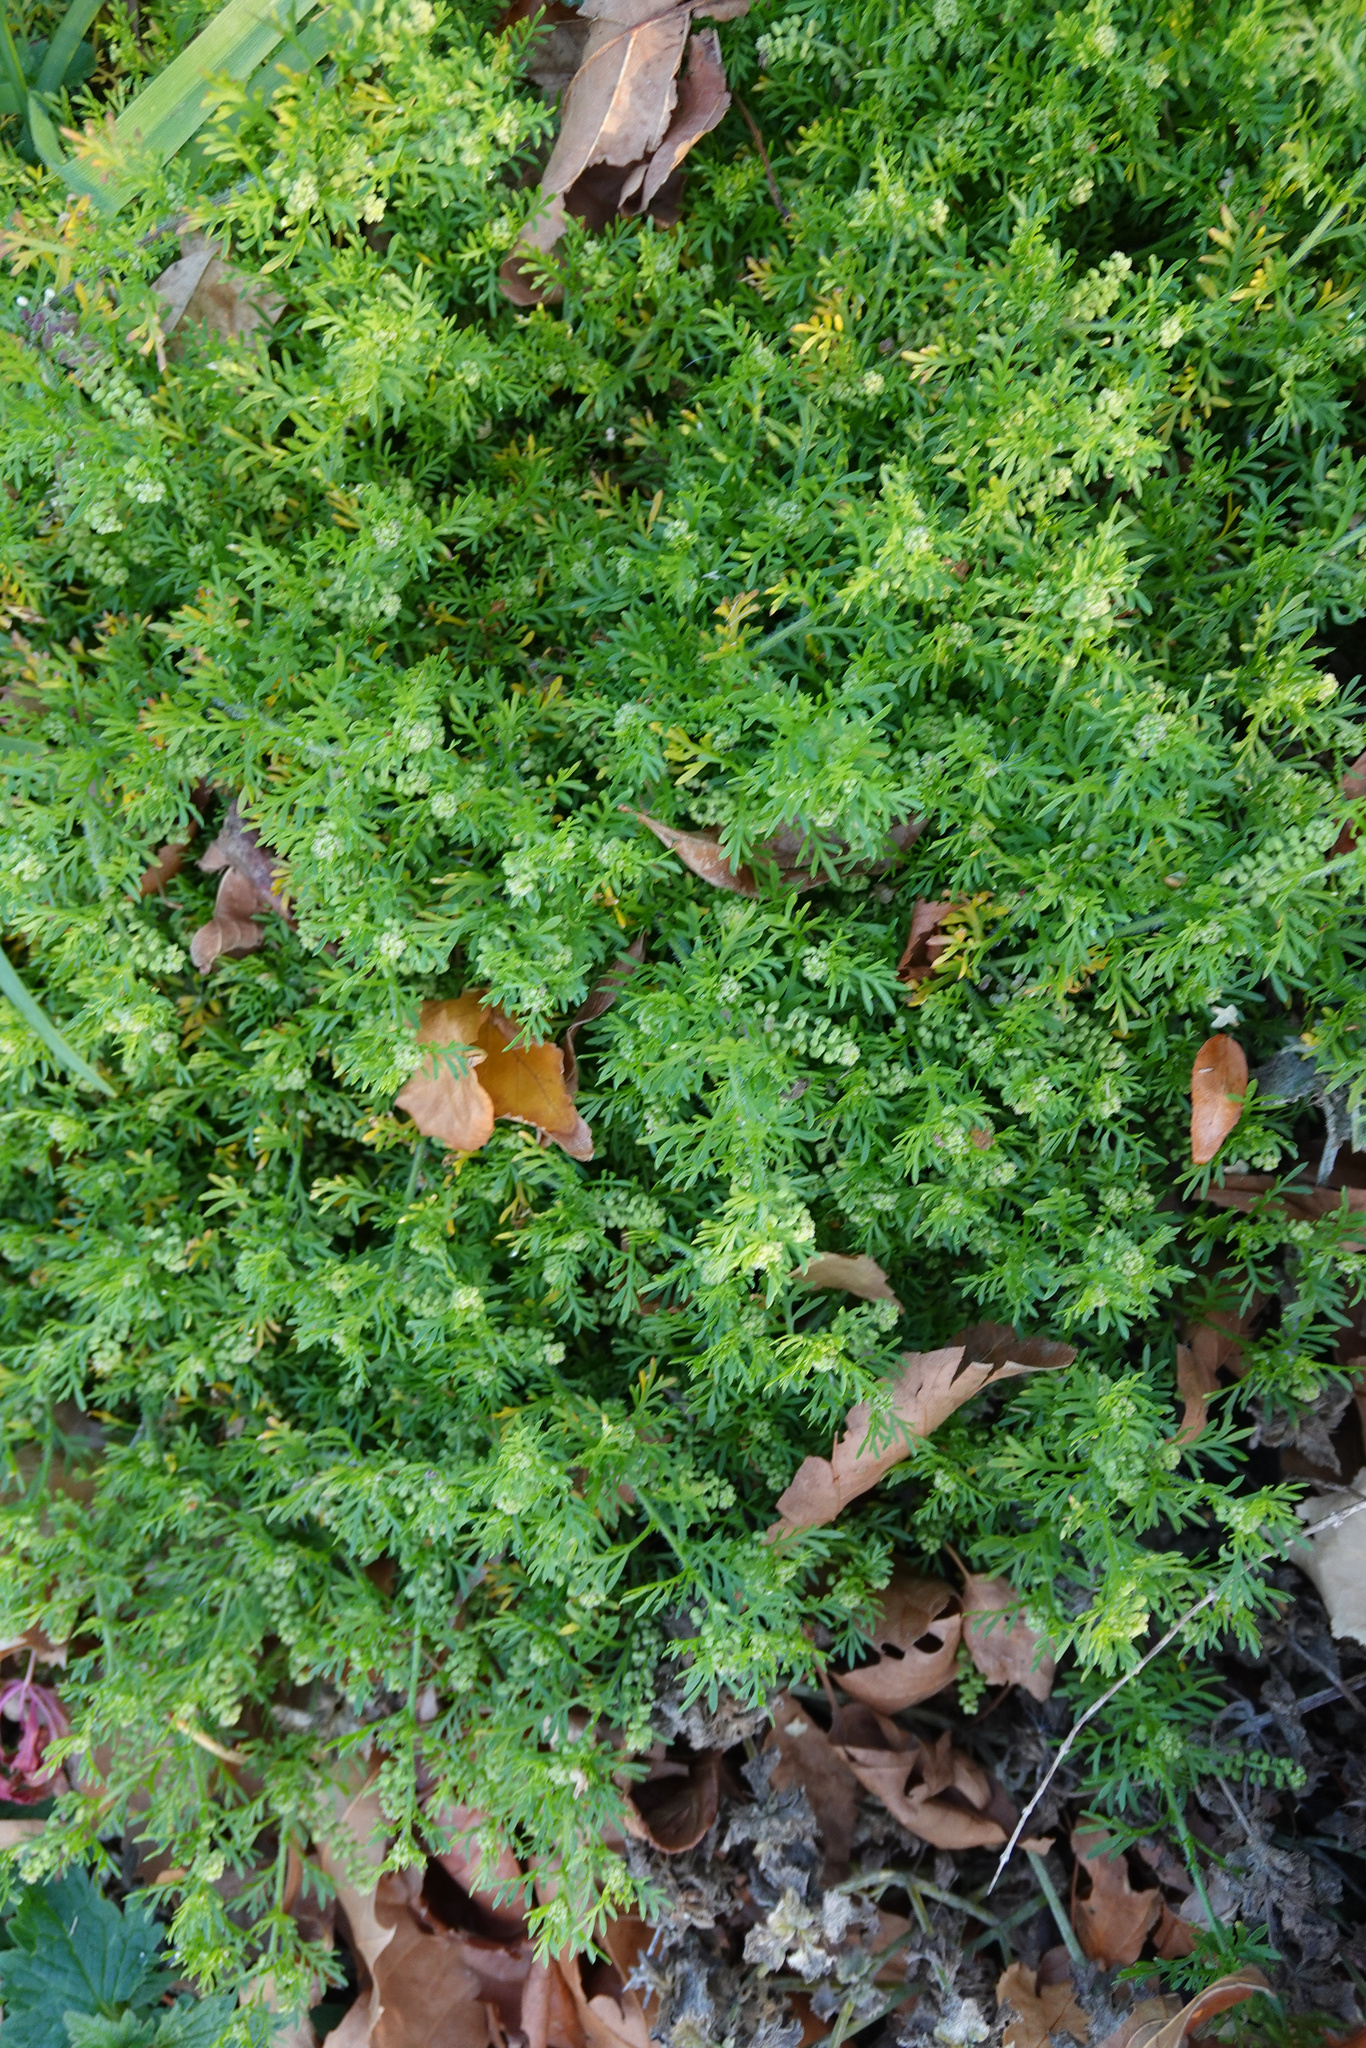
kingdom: Plantae
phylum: Tracheophyta
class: Magnoliopsida
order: Brassicales
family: Brassicaceae
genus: Lepidium
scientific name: Lepidium didymum
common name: Lesser swinecress
